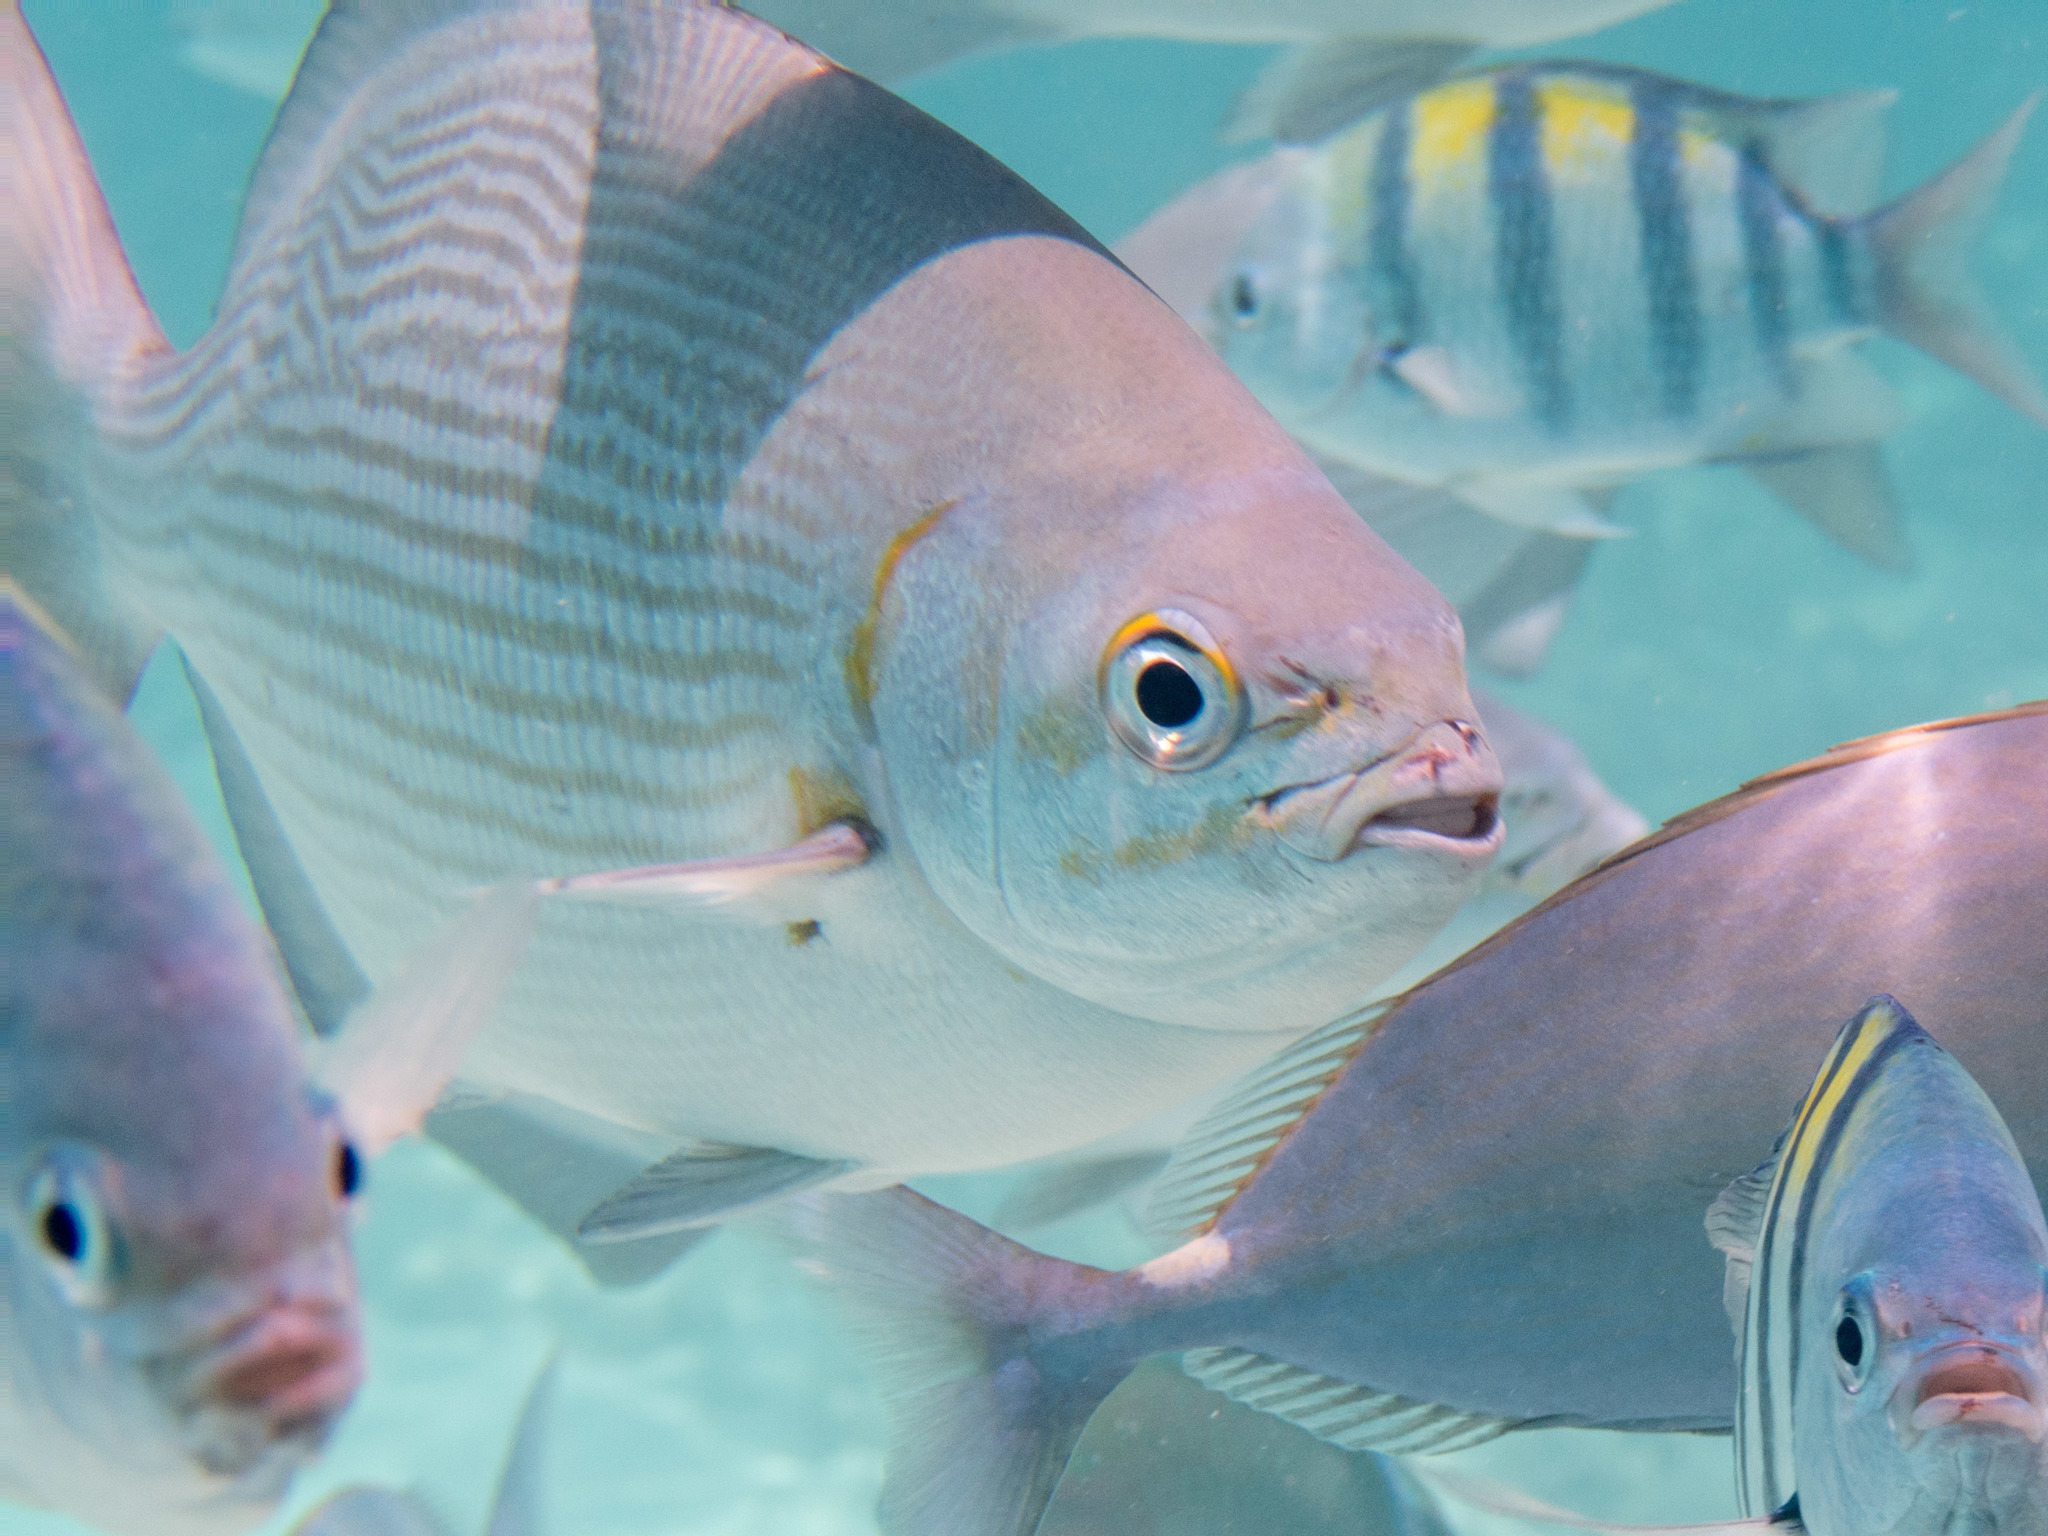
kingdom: Animalia
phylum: Chordata
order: Perciformes
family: Kyphosidae
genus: Kyphosus
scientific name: Kyphosus vaigiensis
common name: Brassy chub
